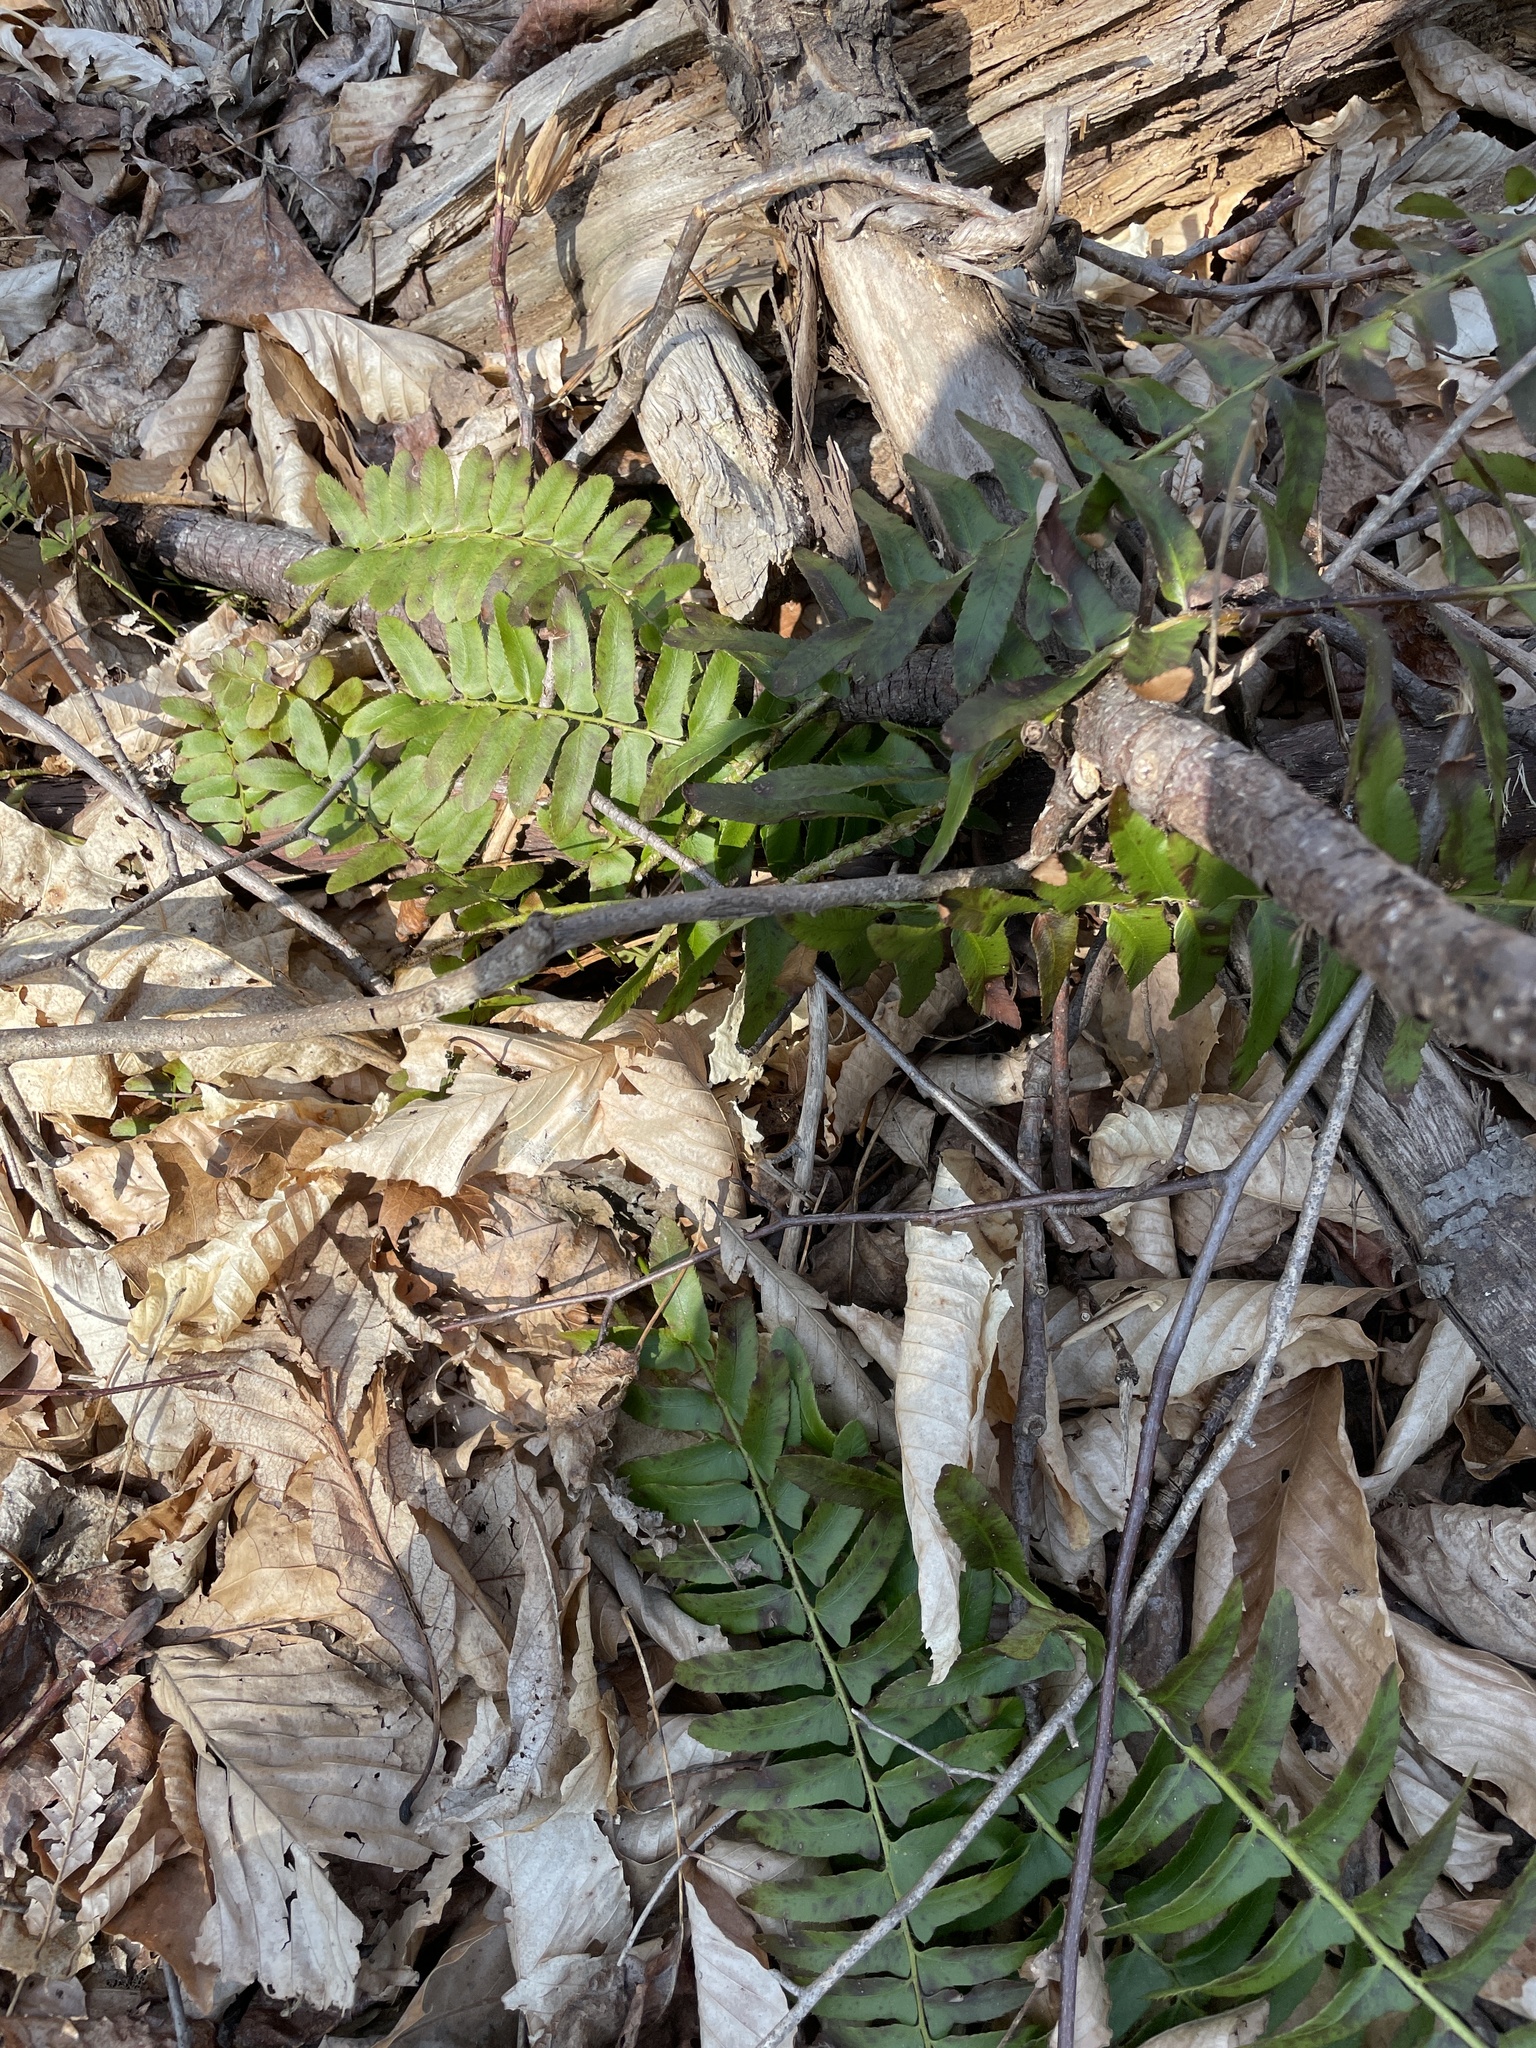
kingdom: Plantae
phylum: Tracheophyta
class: Polypodiopsida
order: Polypodiales
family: Dryopteridaceae
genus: Polystichum
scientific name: Polystichum acrostichoides
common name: Christmas fern
